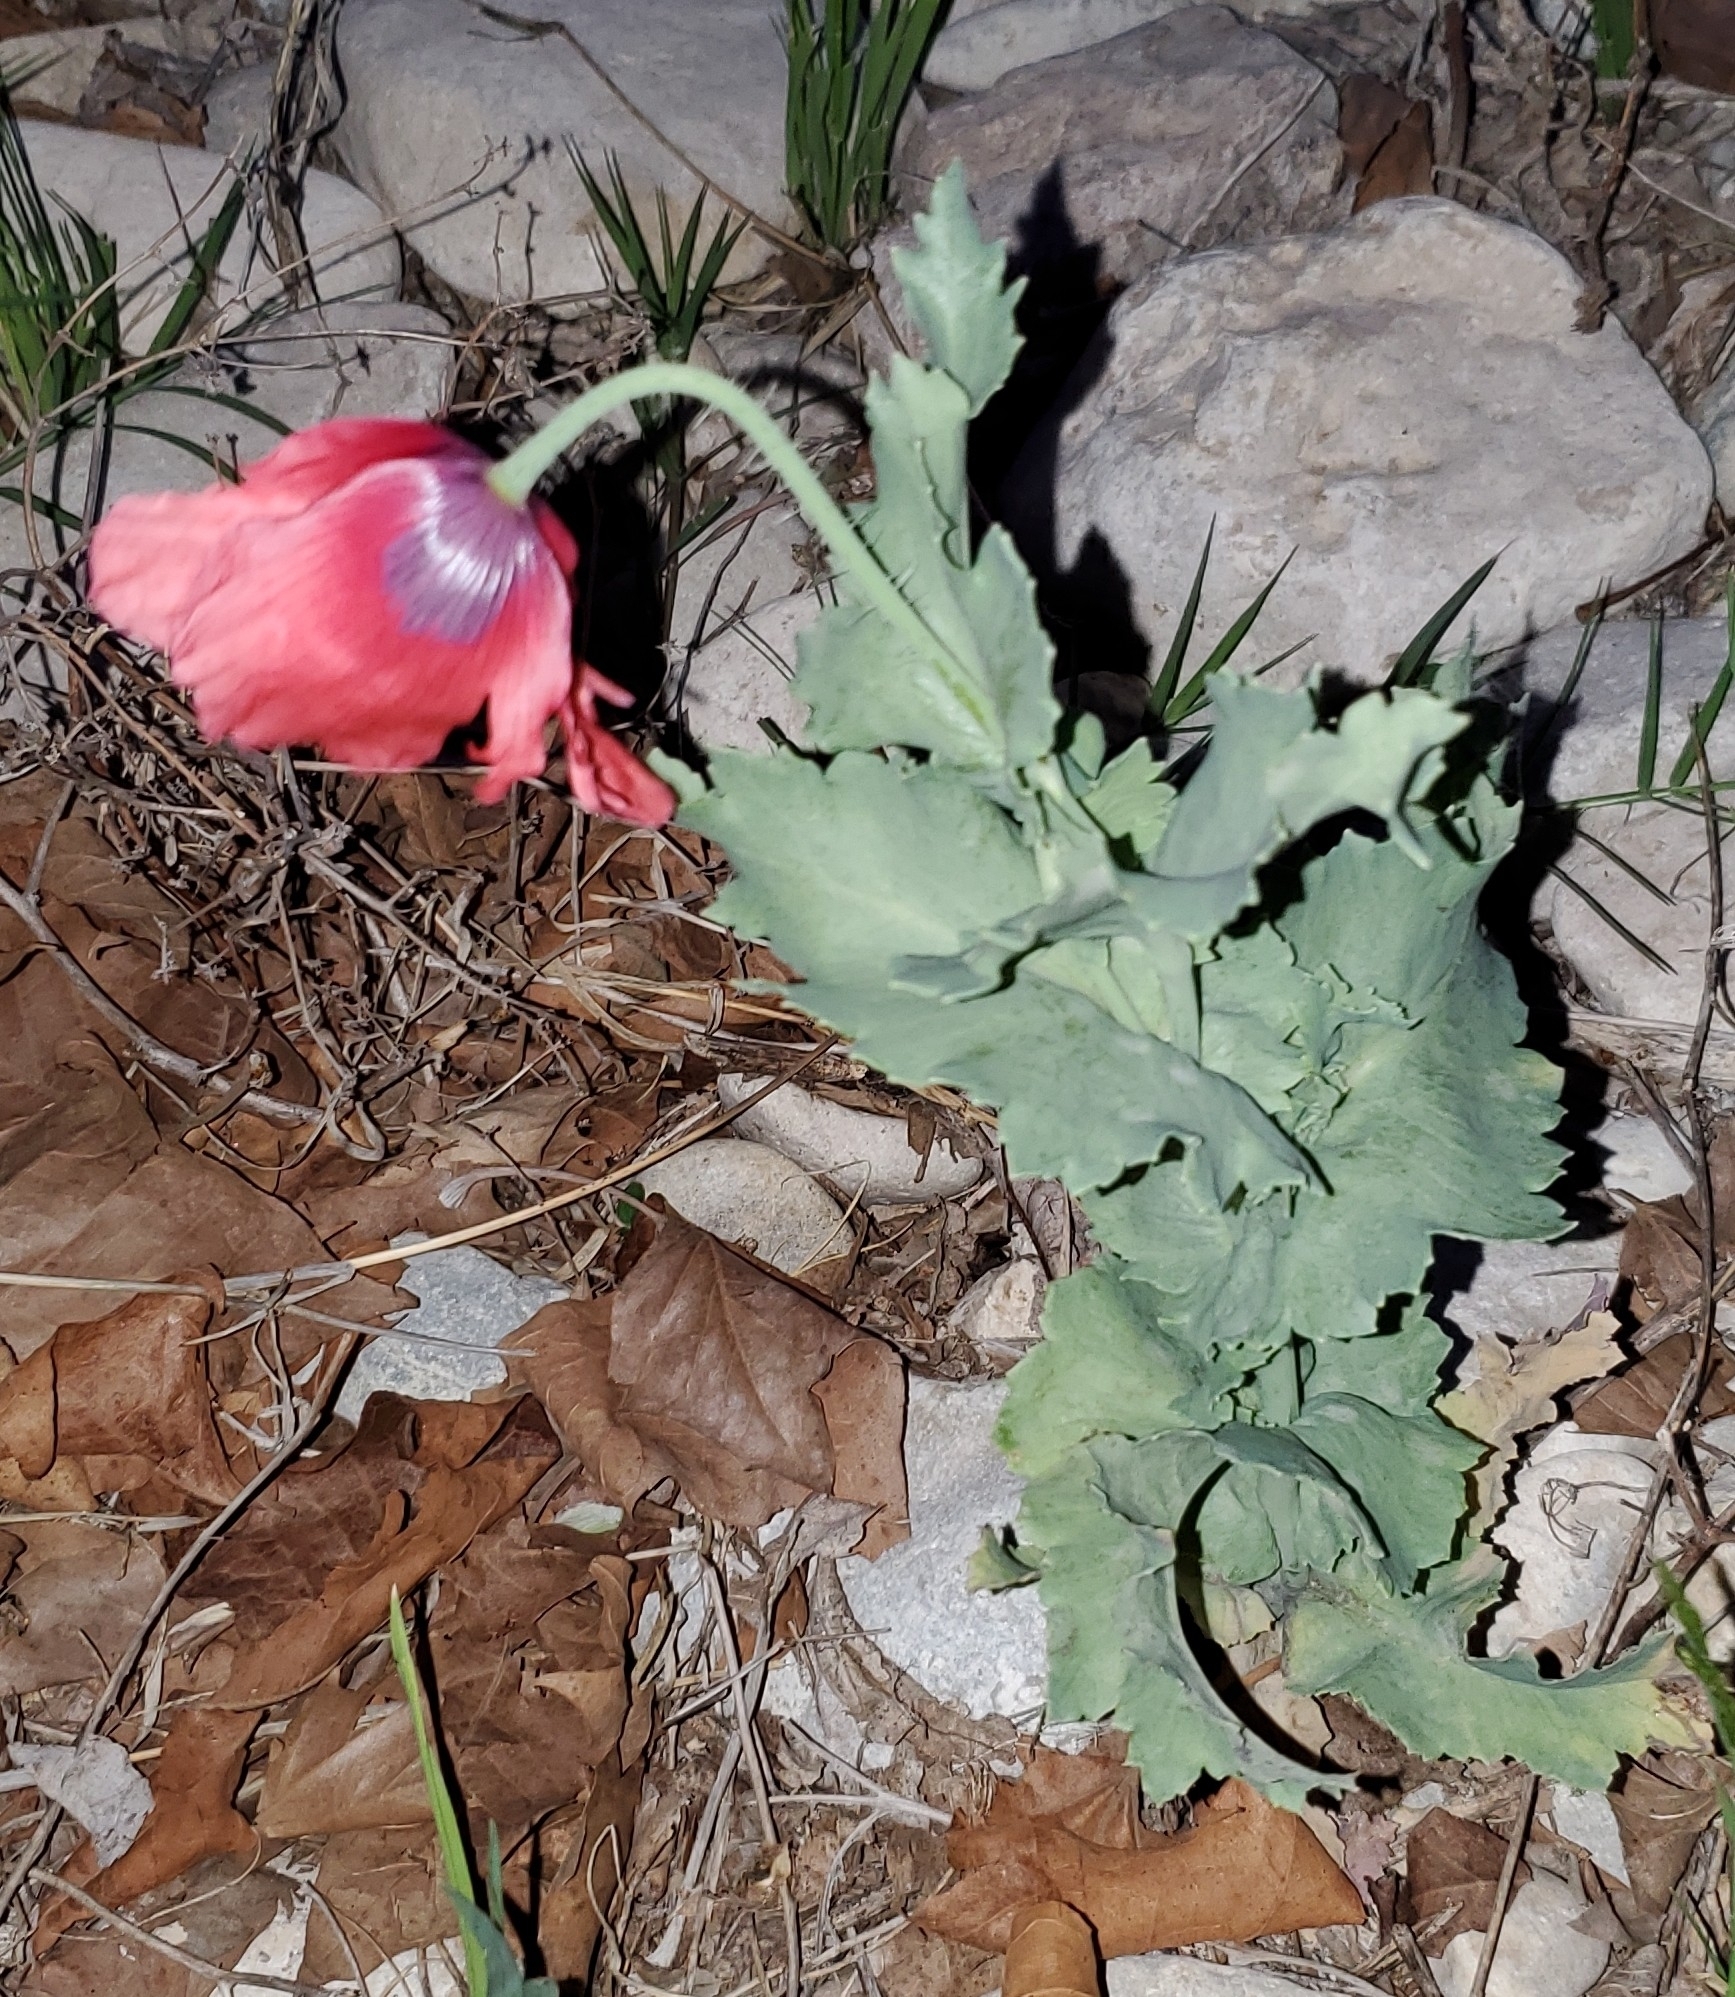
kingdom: Plantae
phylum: Tracheophyta
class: Magnoliopsida
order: Ranunculales
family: Papaveraceae
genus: Papaver
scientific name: Papaver somniferum
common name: Opium poppy
